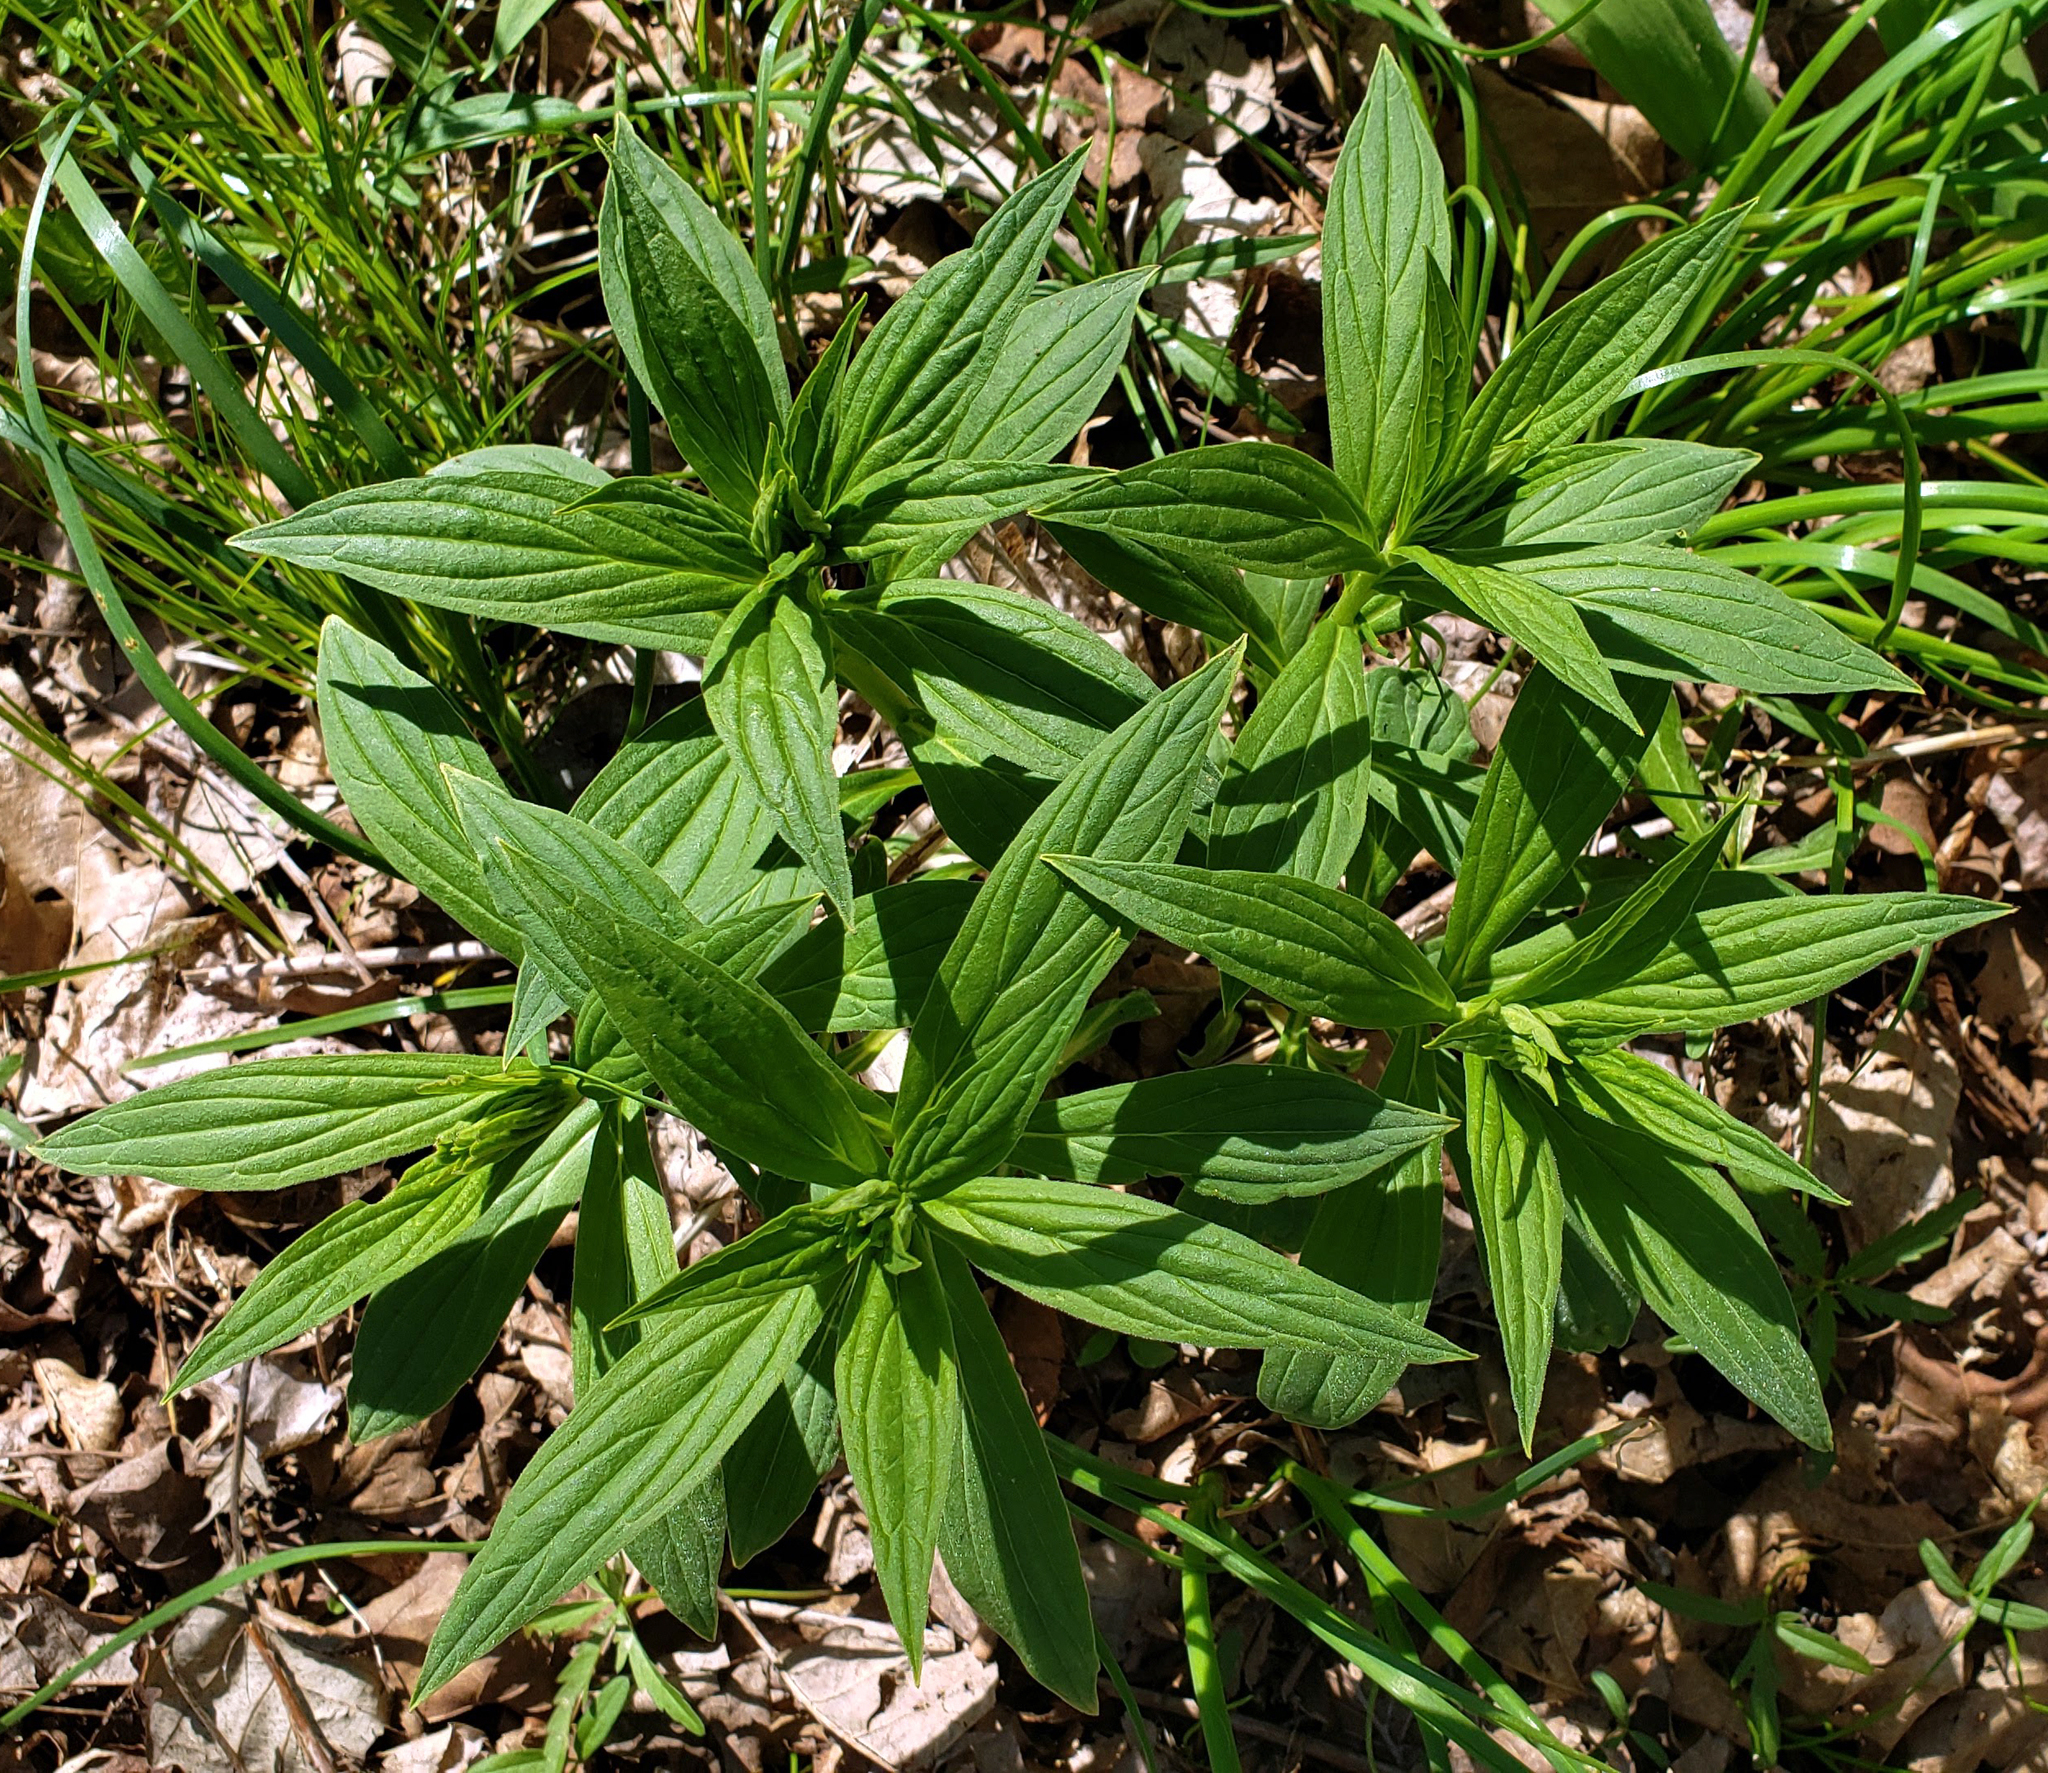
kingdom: Plantae
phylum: Tracheophyta
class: Magnoliopsida
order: Boraginales
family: Boraginaceae
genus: Lithospermum
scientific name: Lithospermum latifolium
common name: American gromwell
